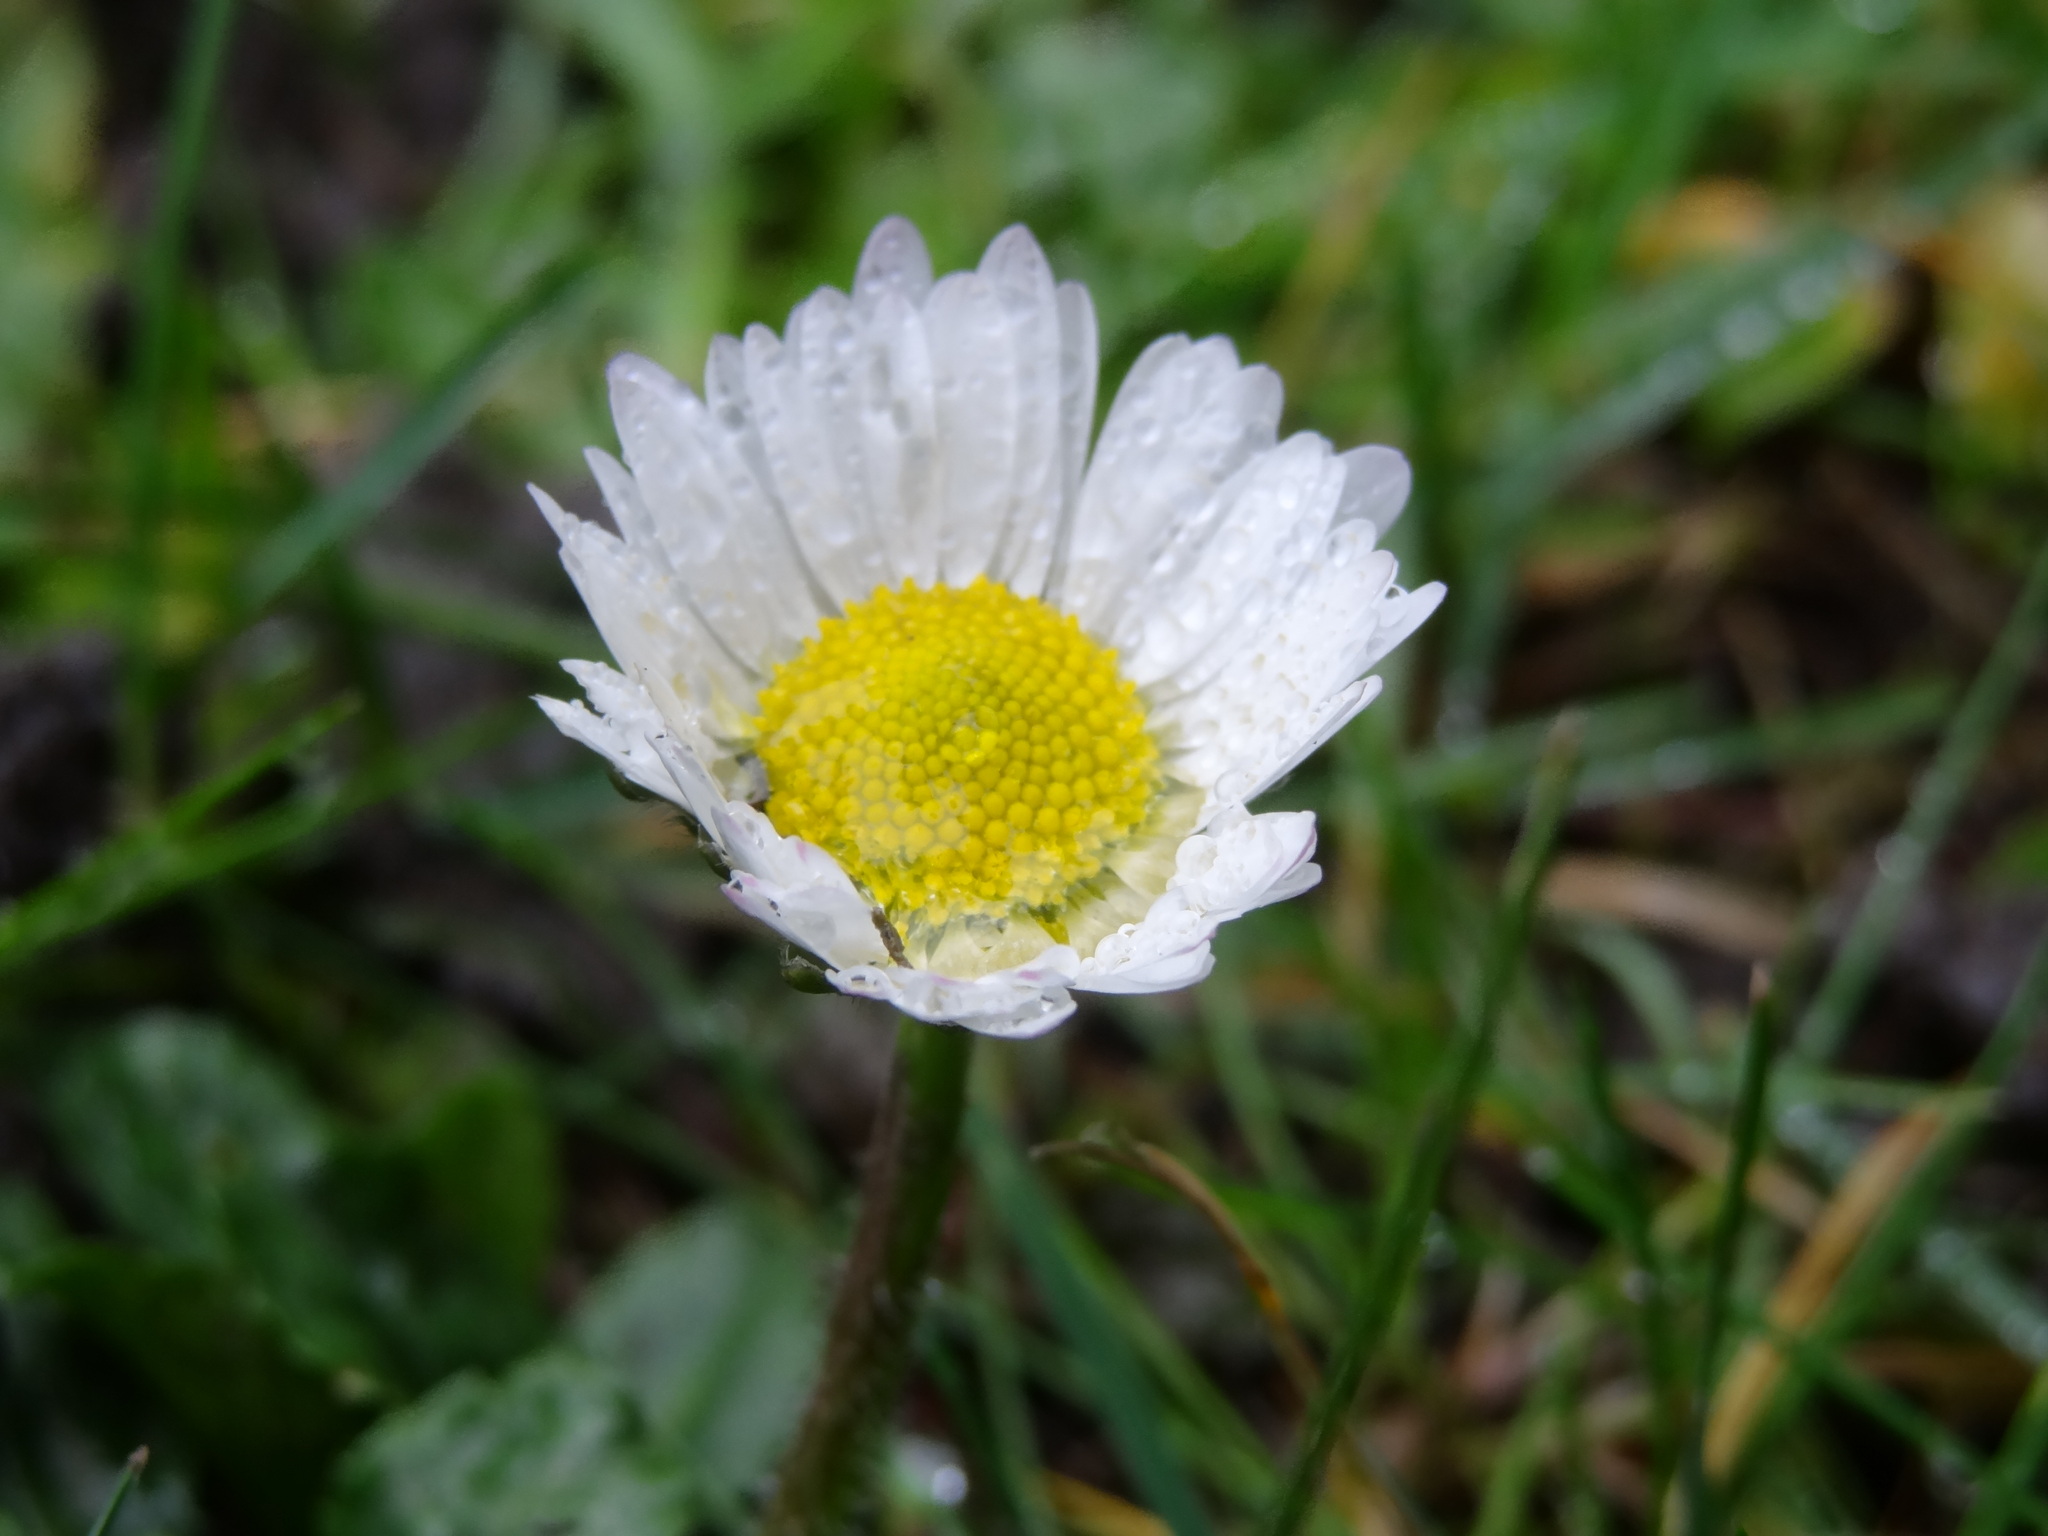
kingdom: Plantae
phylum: Tracheophyta
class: Magnoliopsida
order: Asterales
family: Asteraceae
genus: Bellis
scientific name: Bellis perennis
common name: Lawndaisy
